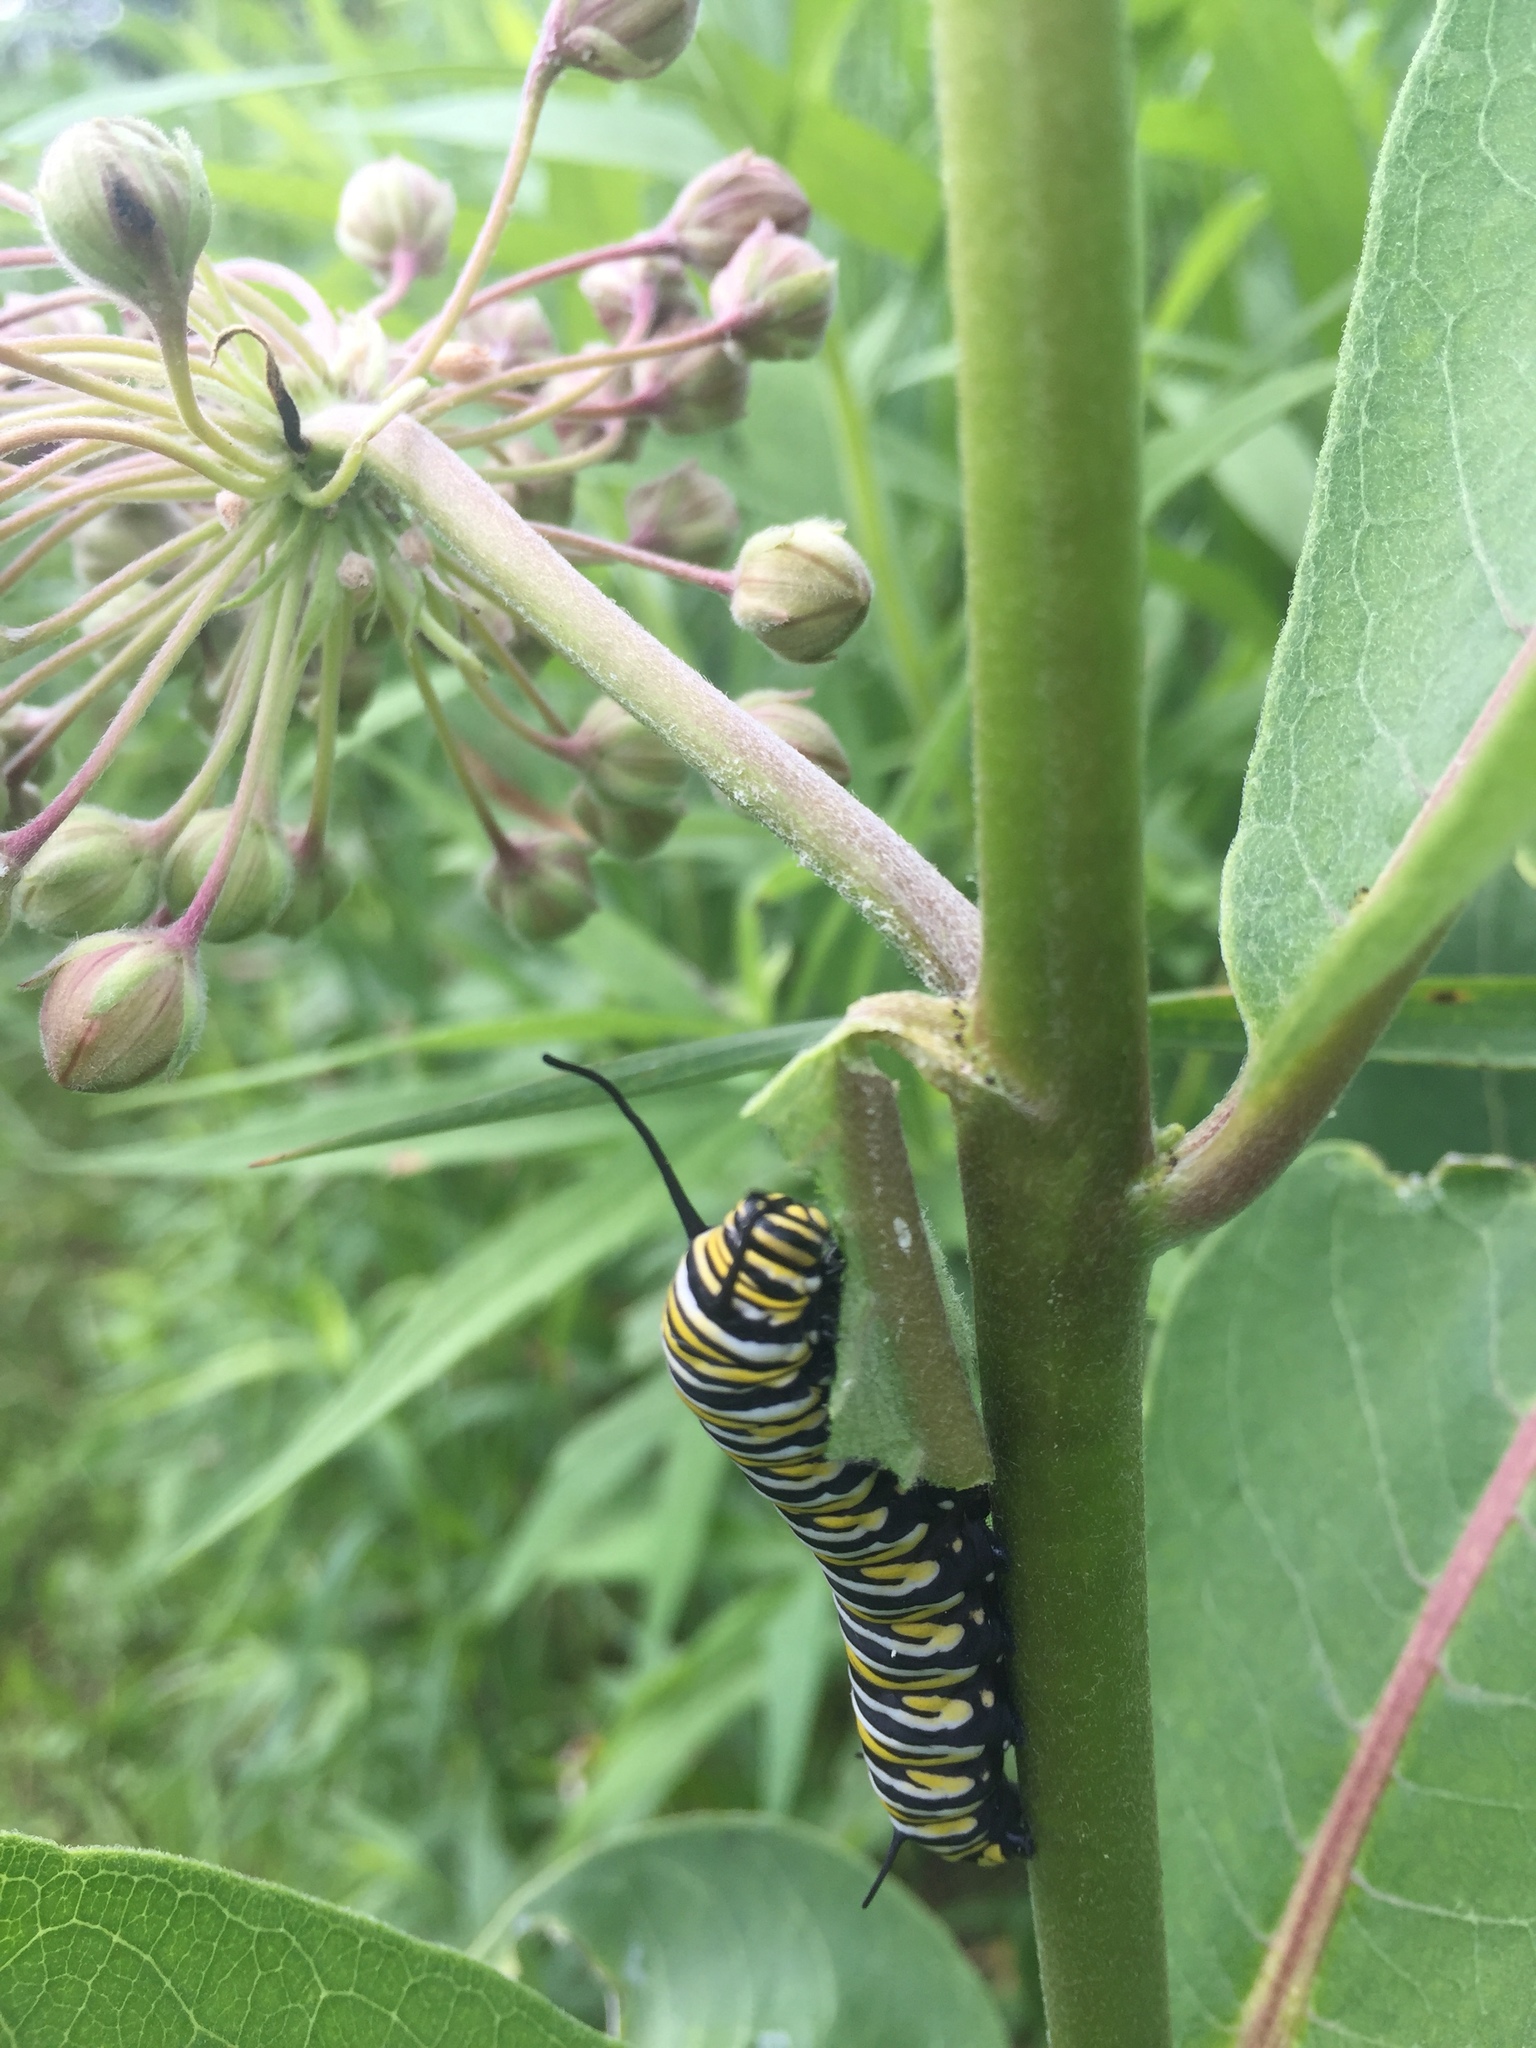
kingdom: Animalia
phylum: Arthropoda
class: Insecta
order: Lepidoptera
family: Nymphalidae
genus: Danaus
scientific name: Danaus plexippus
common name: Monarch
